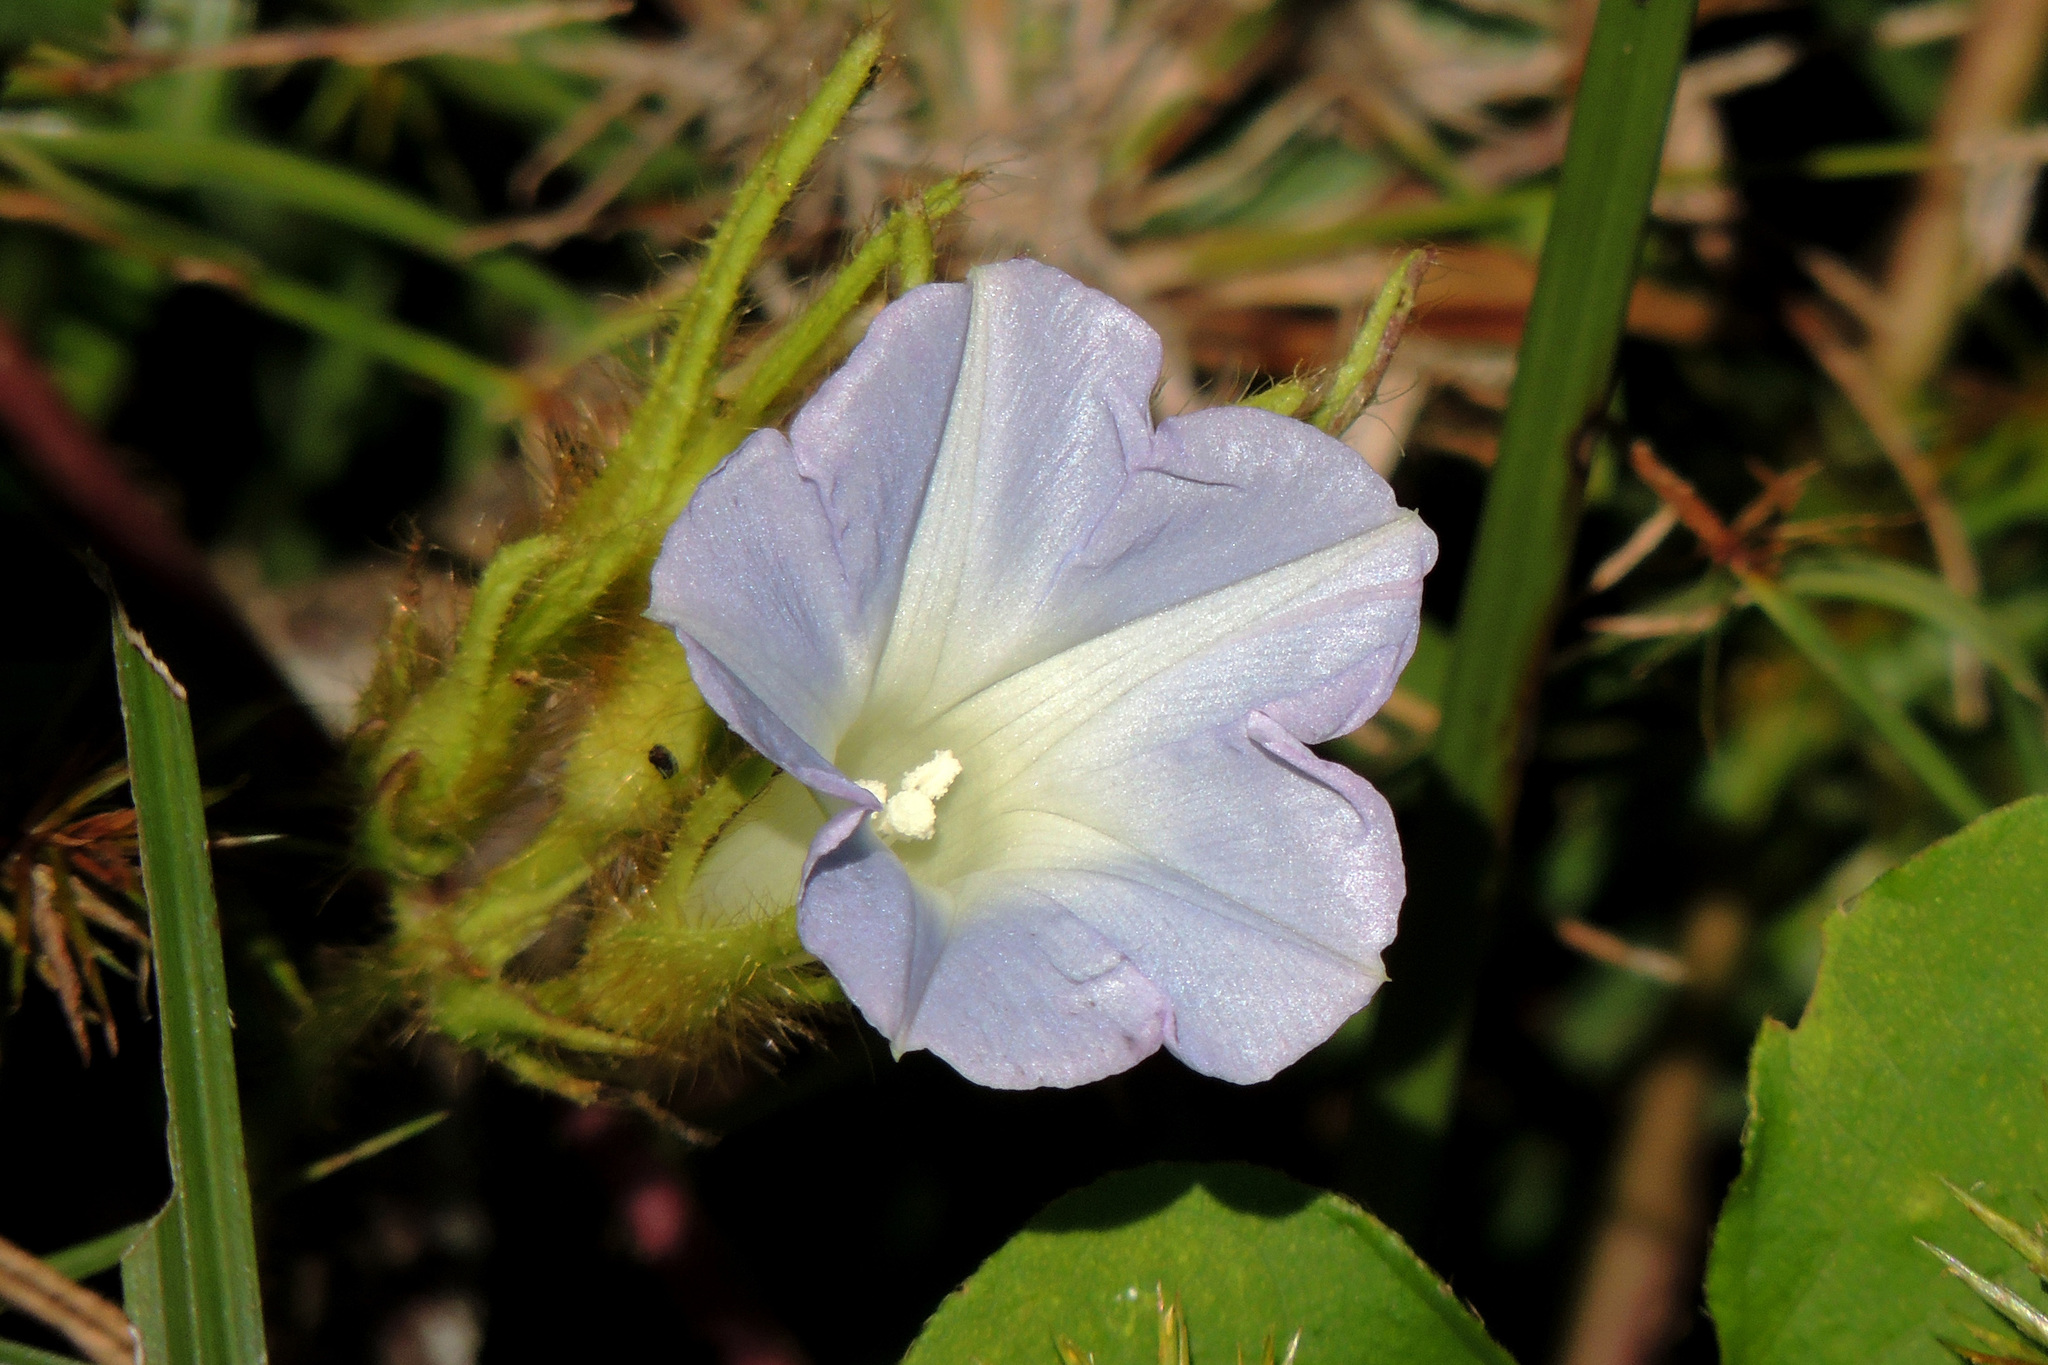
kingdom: Plantae
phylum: Tracheophyta
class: Magnoliopsida
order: Solanales
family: Convolvulaceae
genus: Ipomoea
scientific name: Ipomoea nil
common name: Japanese morning-glory
